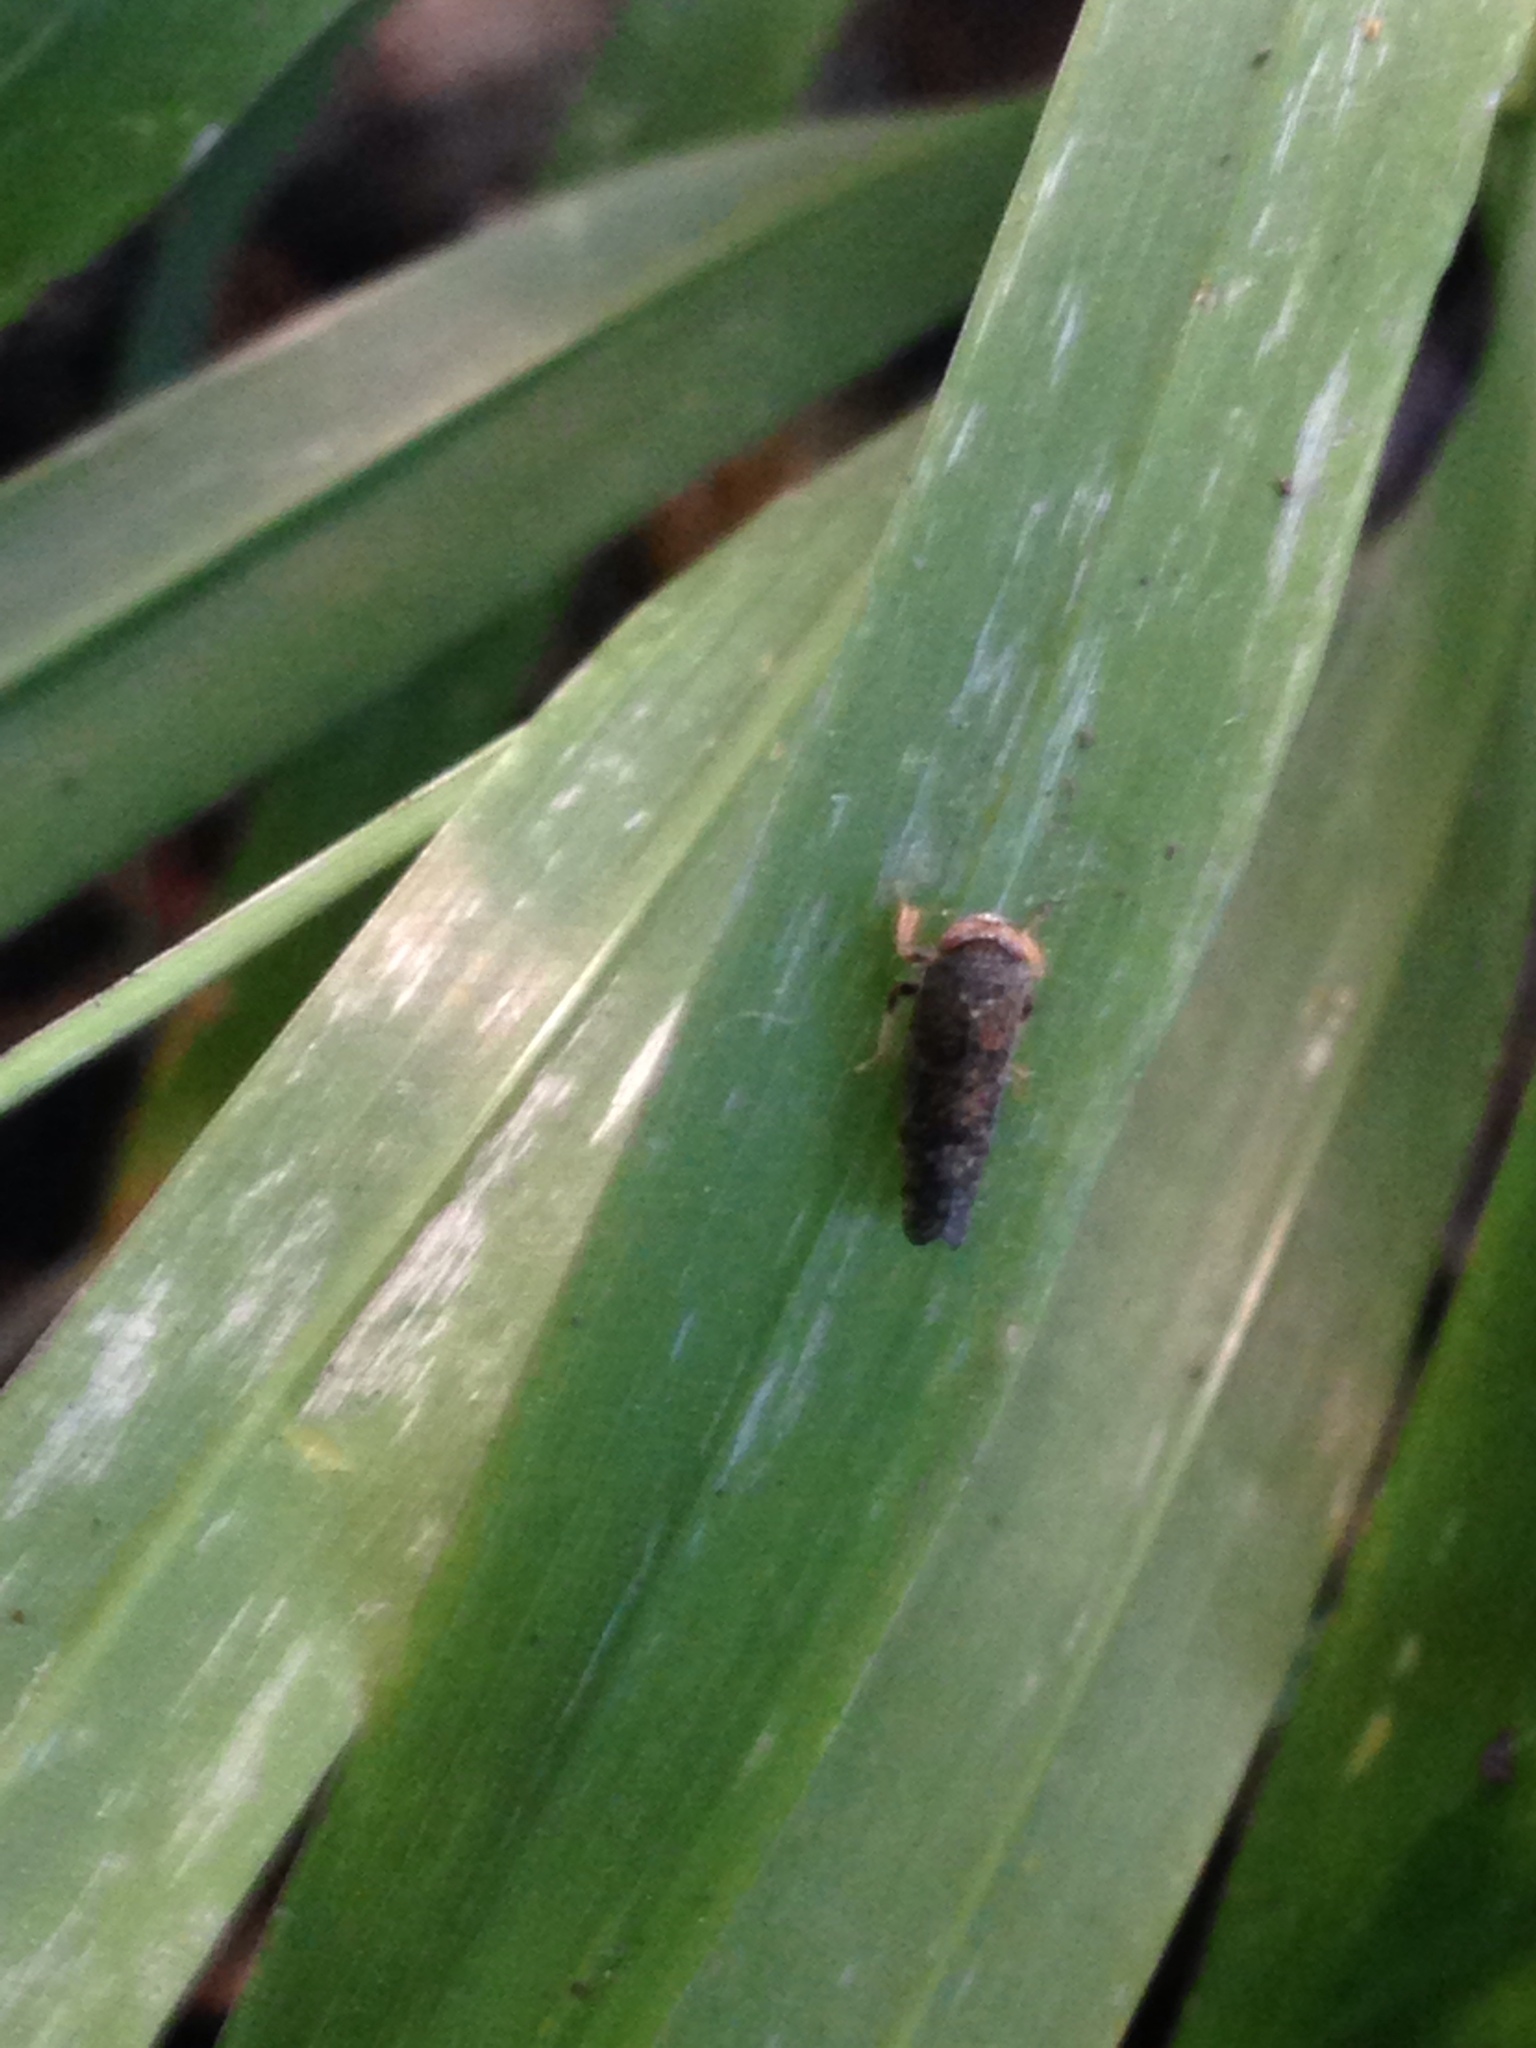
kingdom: Animalia
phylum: Arthropoda
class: Insecta
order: Hemiptera
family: Cicadellidae
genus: Orientus
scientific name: Orientus ishidae
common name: Japanese leafhopper
